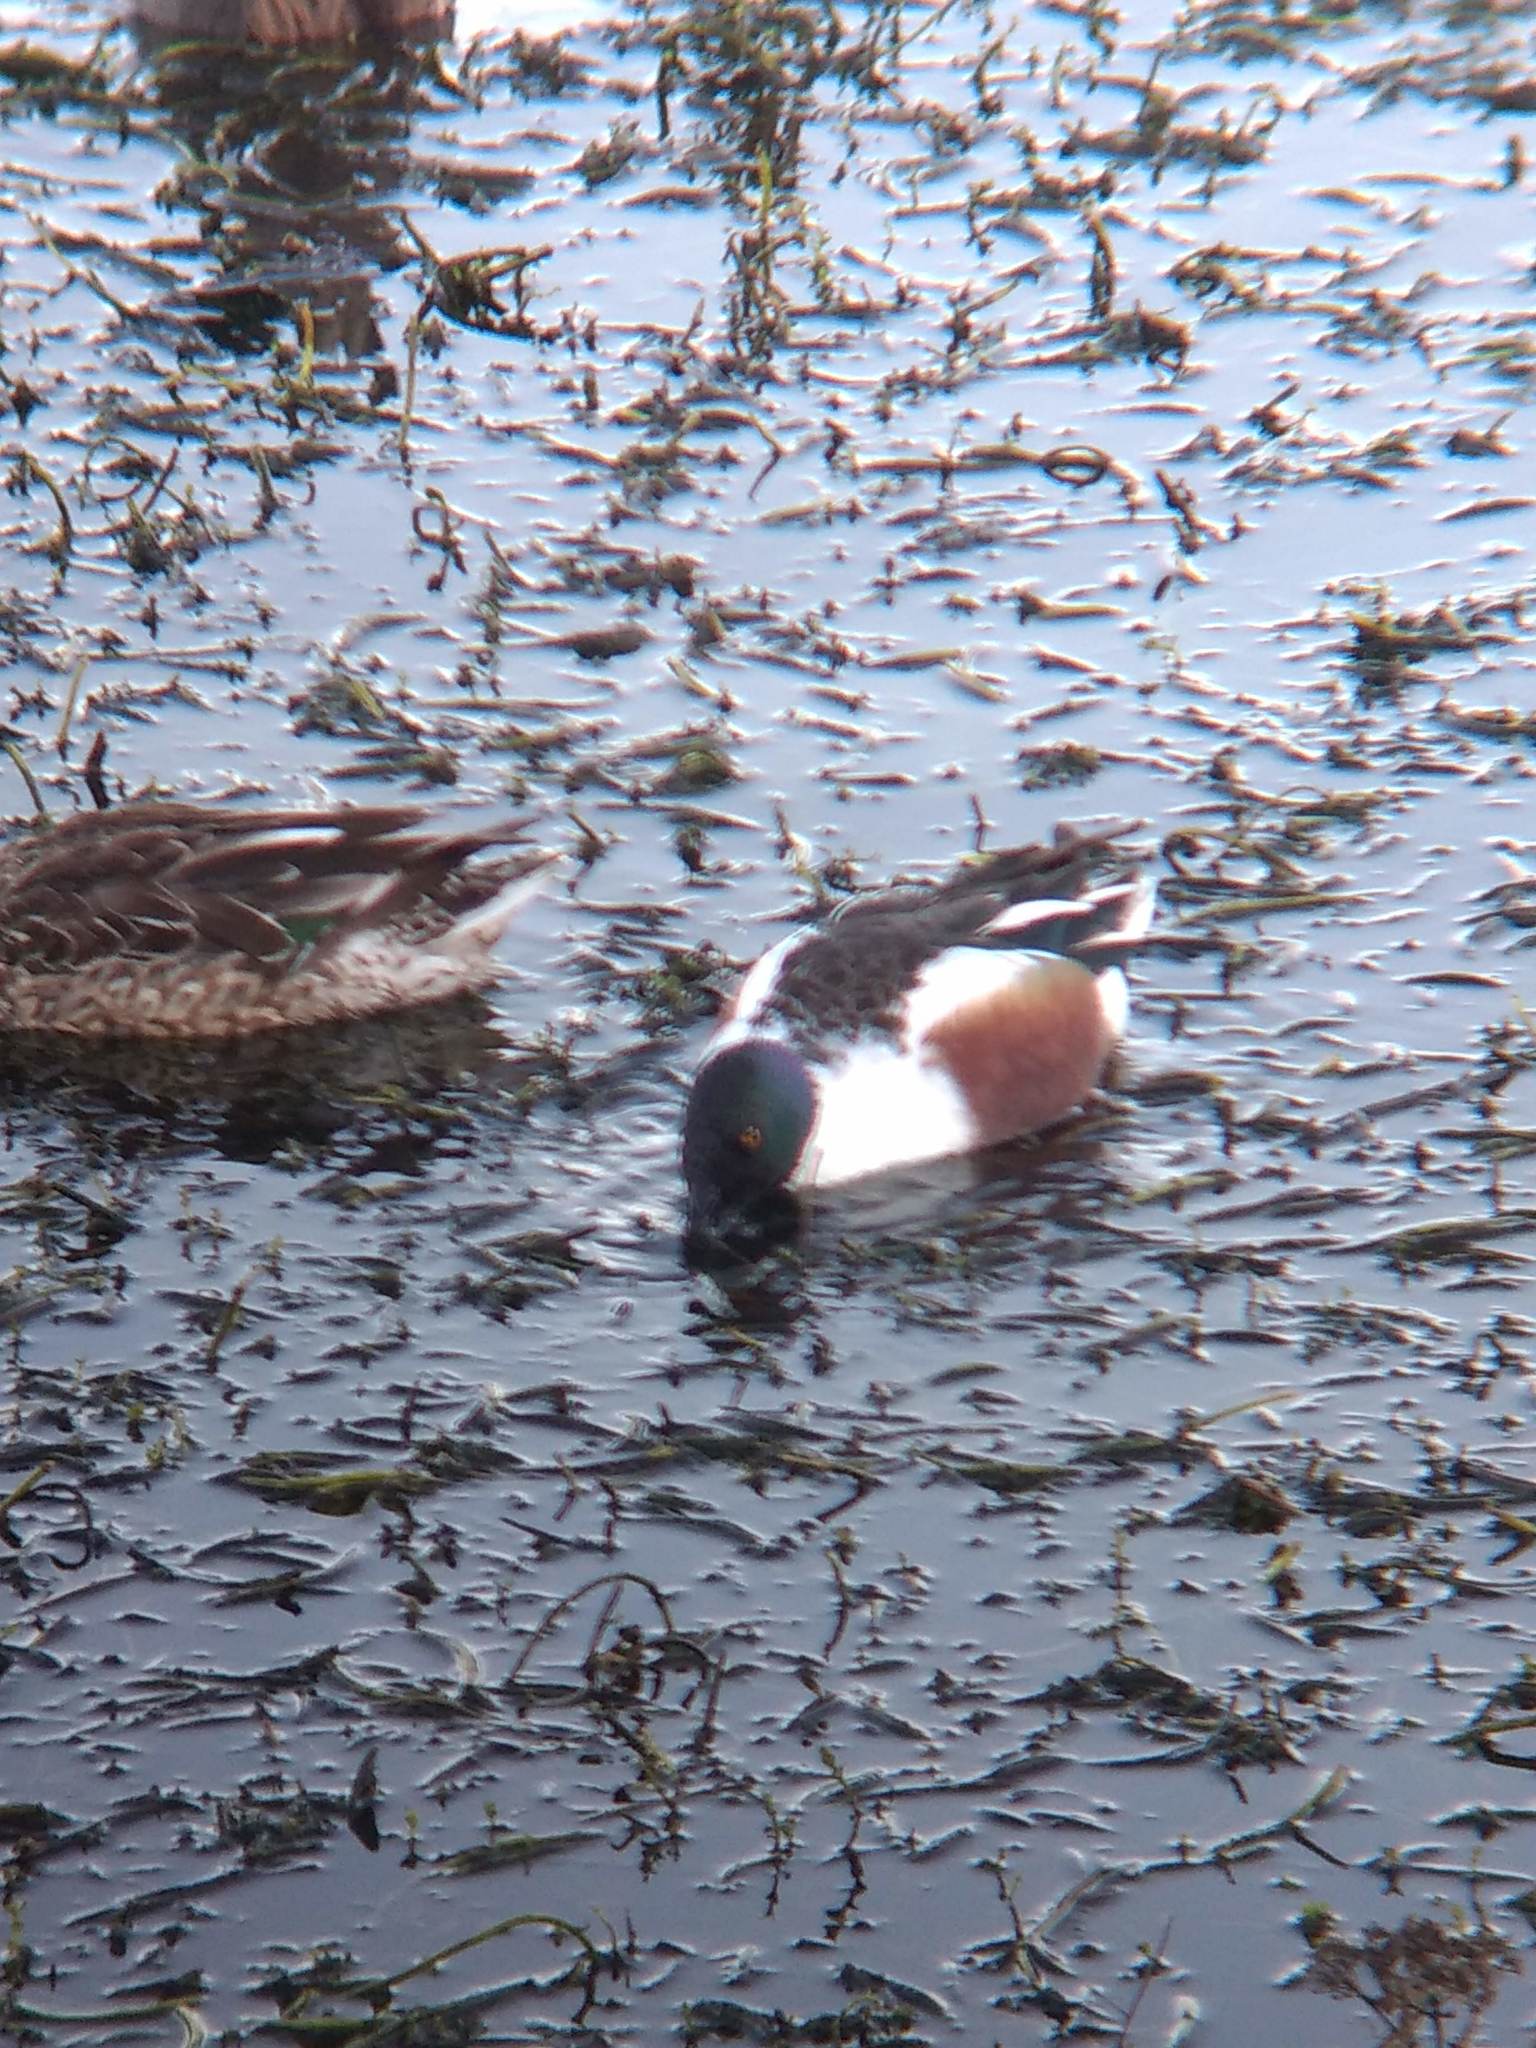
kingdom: Animalia
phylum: Chordata
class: Aves
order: Anseriformes
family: Anatidae
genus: Spatula
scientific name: Spatula clypeata
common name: Northern shoveler
